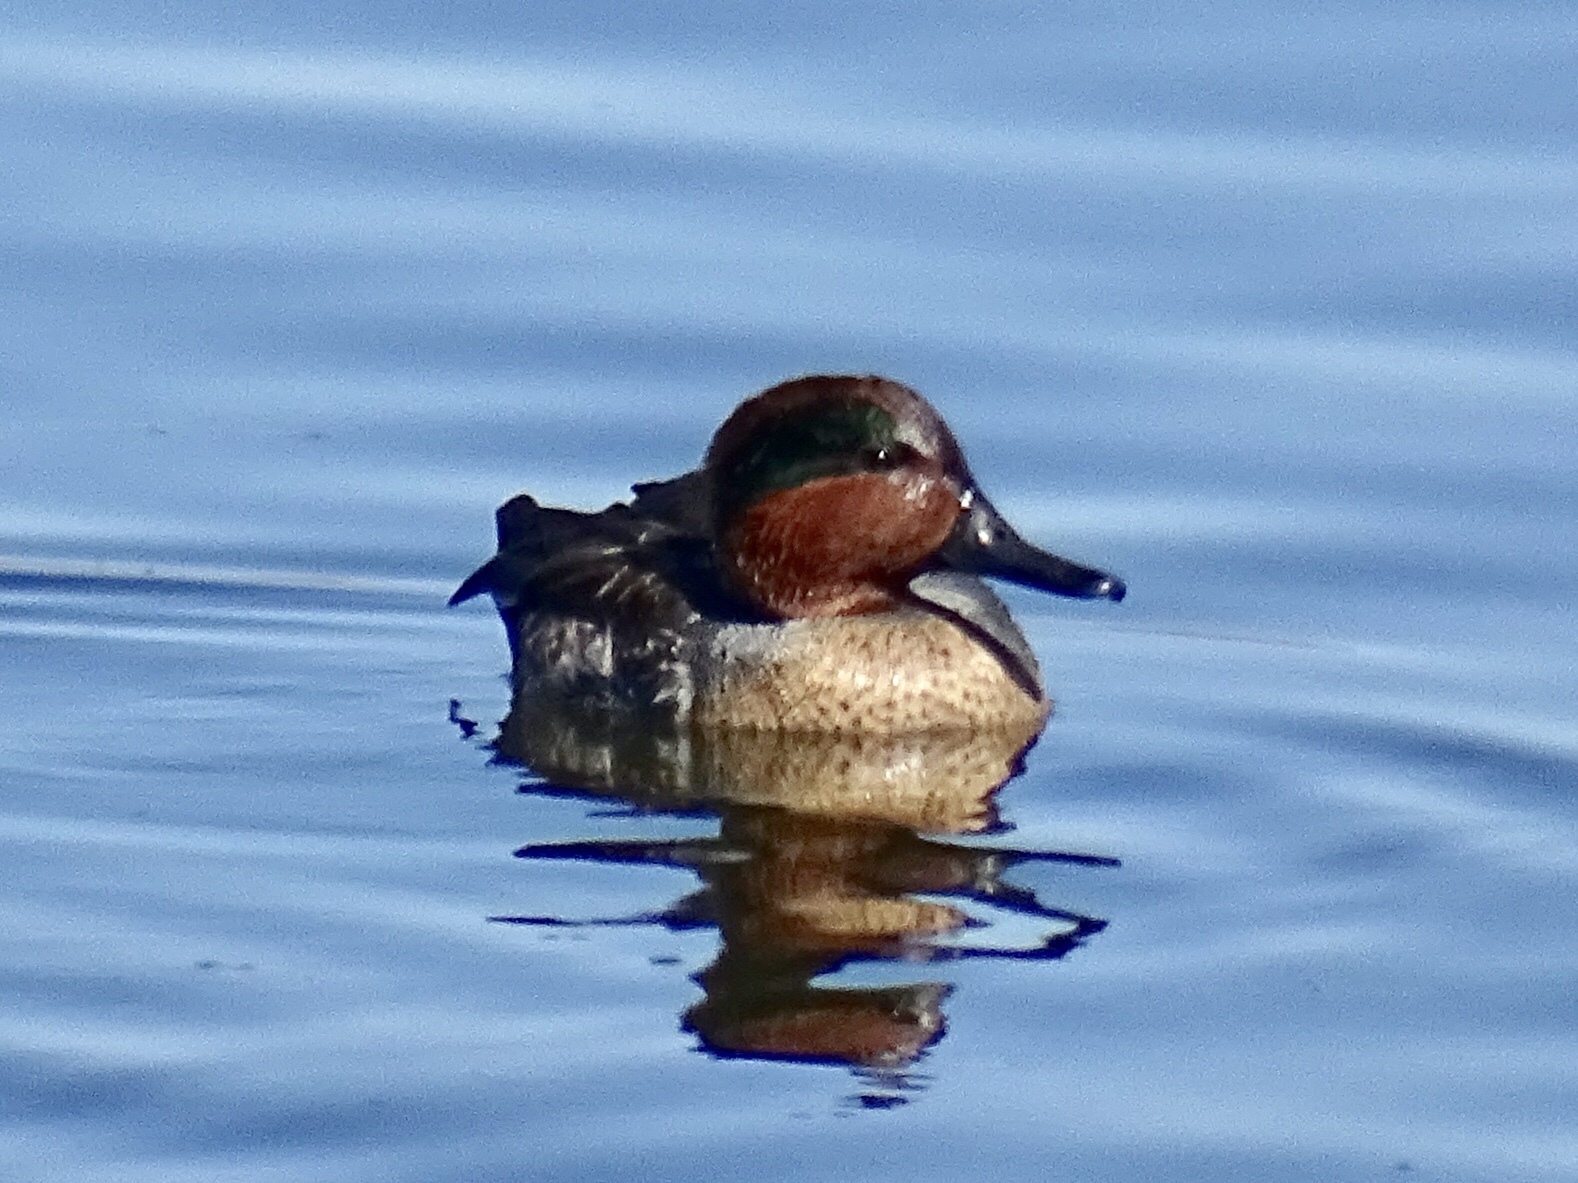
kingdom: Animalia
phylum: Chordata
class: Aves
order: Anseriformes
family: Anatidae
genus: Anas
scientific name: Anas crecca
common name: Eurasian teal
